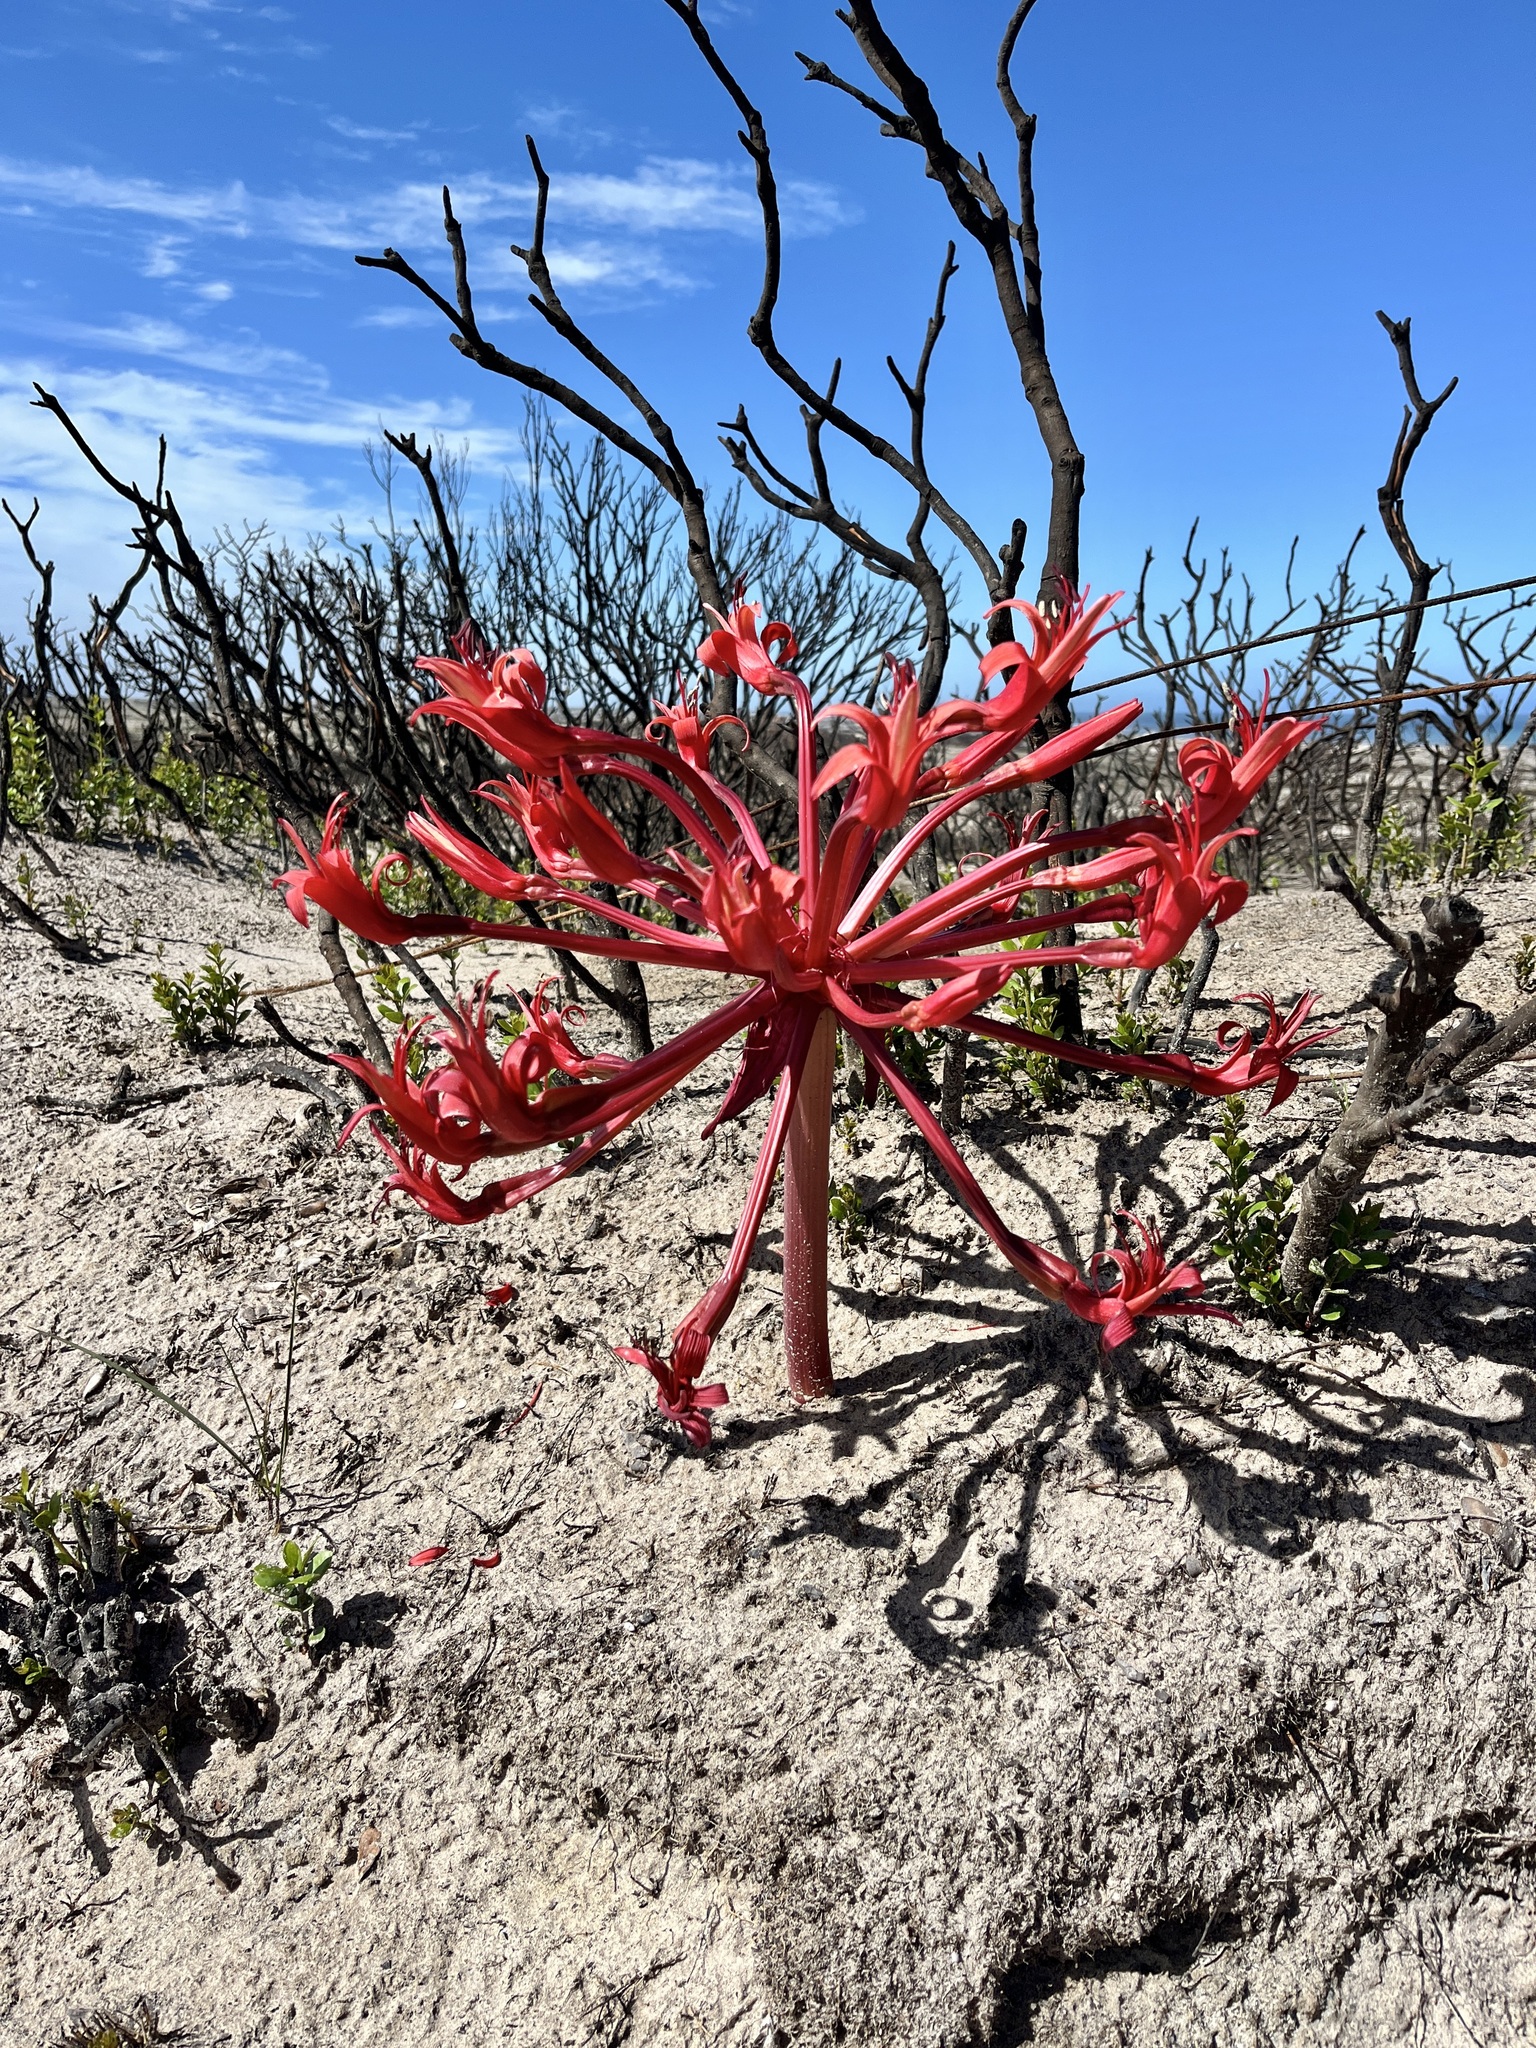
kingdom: Plantae
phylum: Tracheophyta
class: Liliopsida
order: Asparagales
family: Amaryllidaceae
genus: Brunsvigia
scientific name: Brunsvigia orientalis
